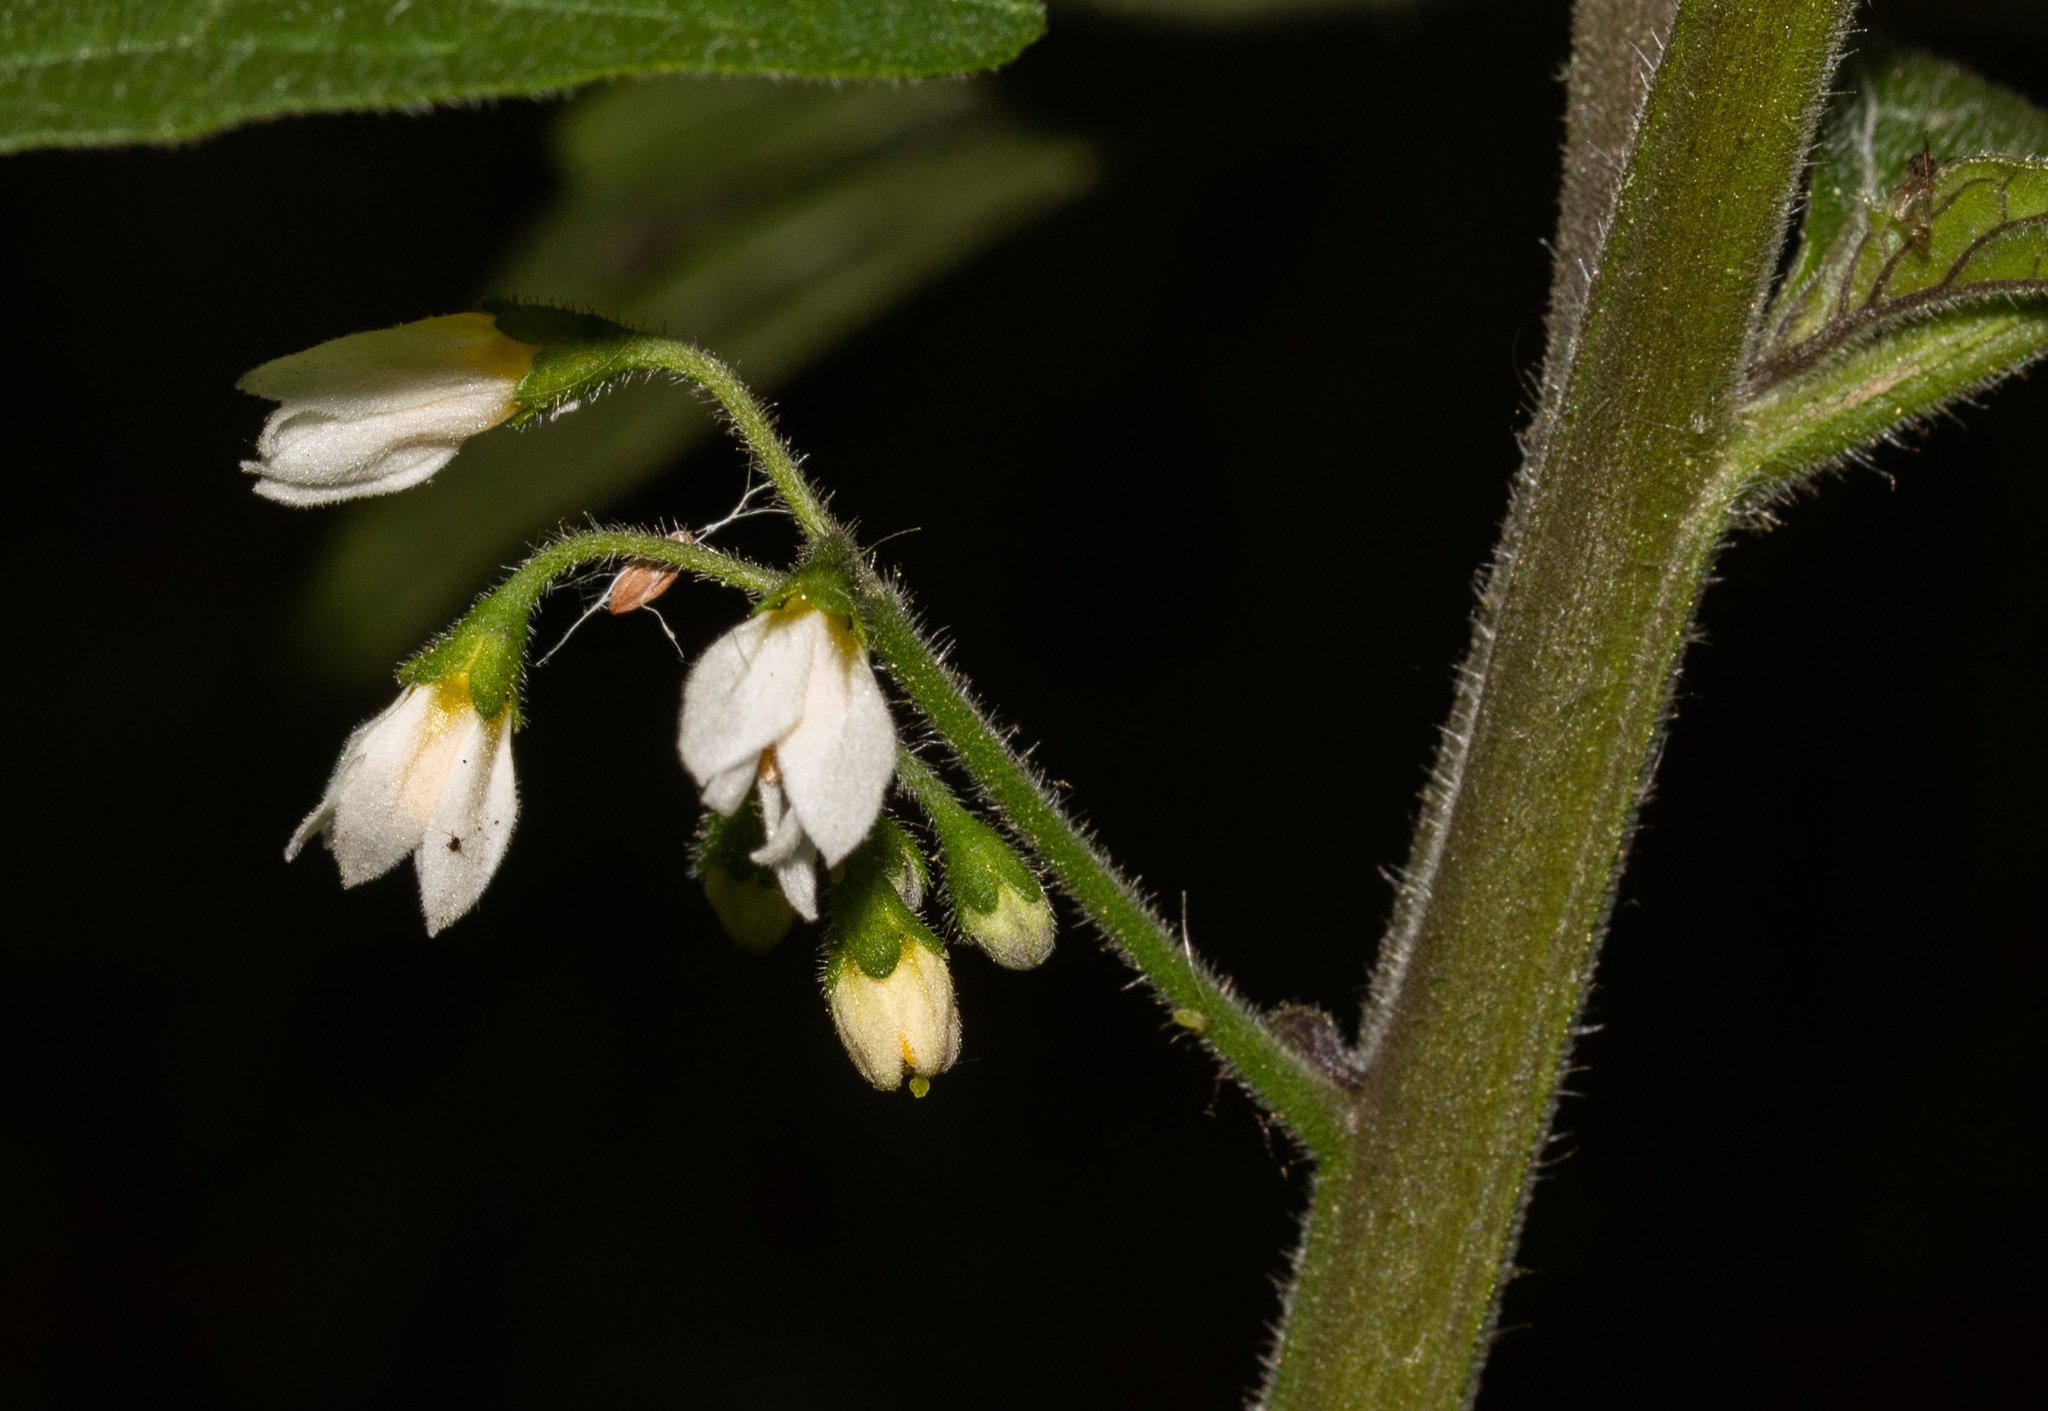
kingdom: Plantae
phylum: Tracheophyta
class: Magnoliopsida
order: Solanales
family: Solanaceae
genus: Solanum
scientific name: Solanum nigrum
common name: Black nightshade
